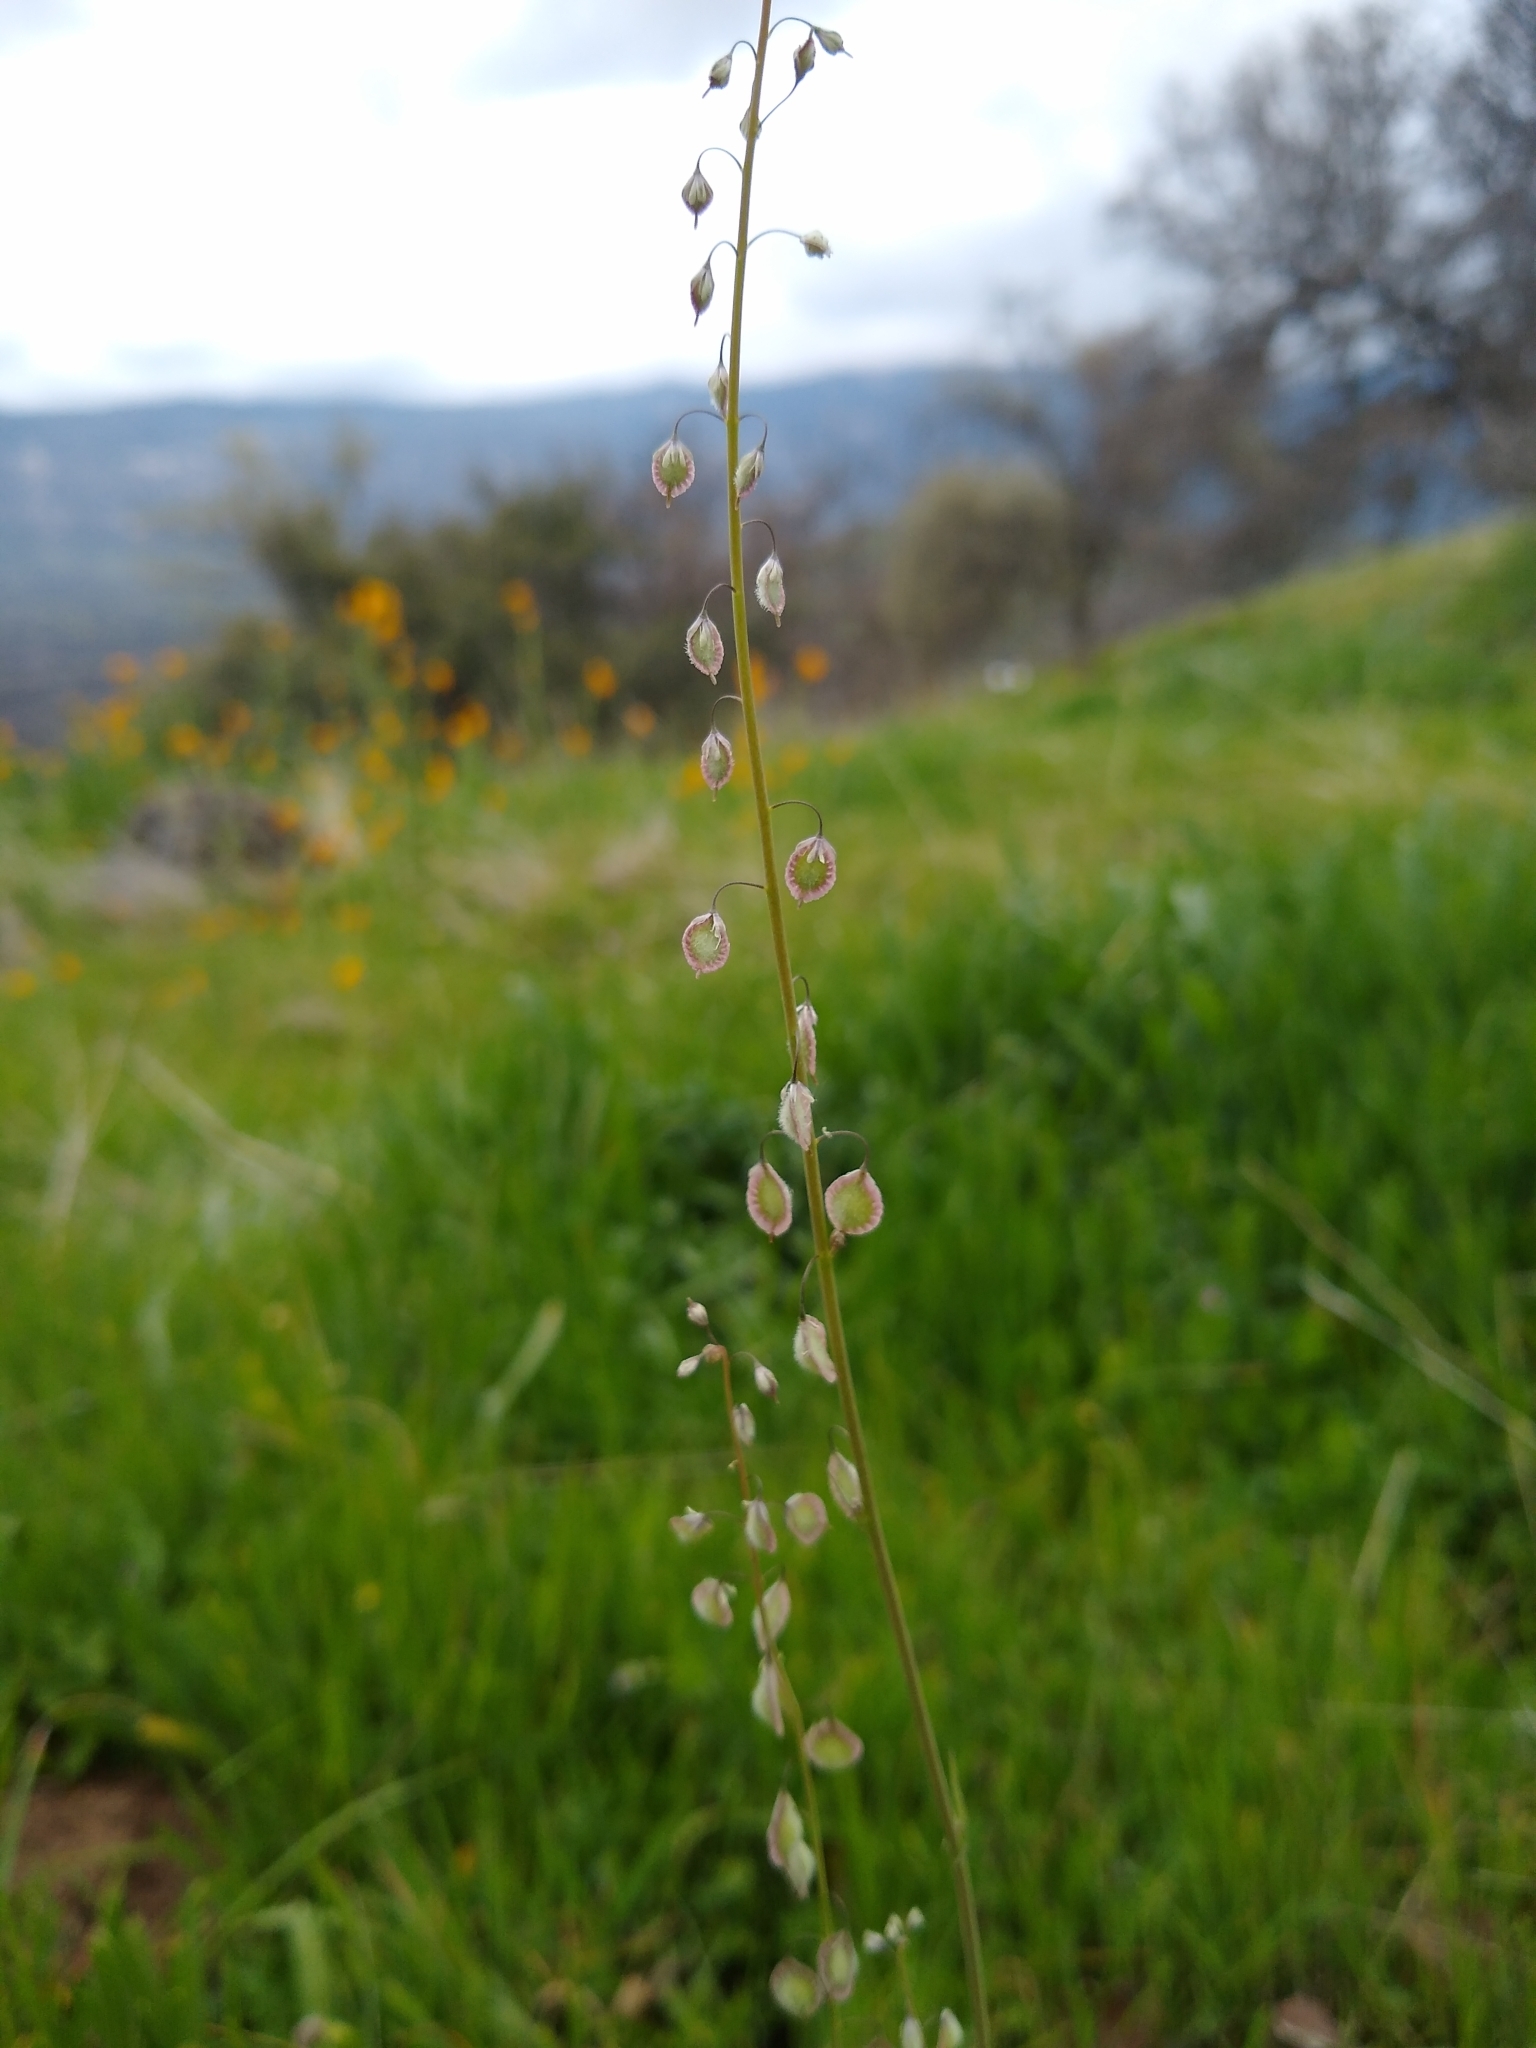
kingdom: Plantae
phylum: Tracheophyta
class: Magnoliopsida
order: Brassicales
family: Brassicaceae
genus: Thysanocarpus
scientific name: Thysanocarpus curvipes
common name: Sand fringepod
